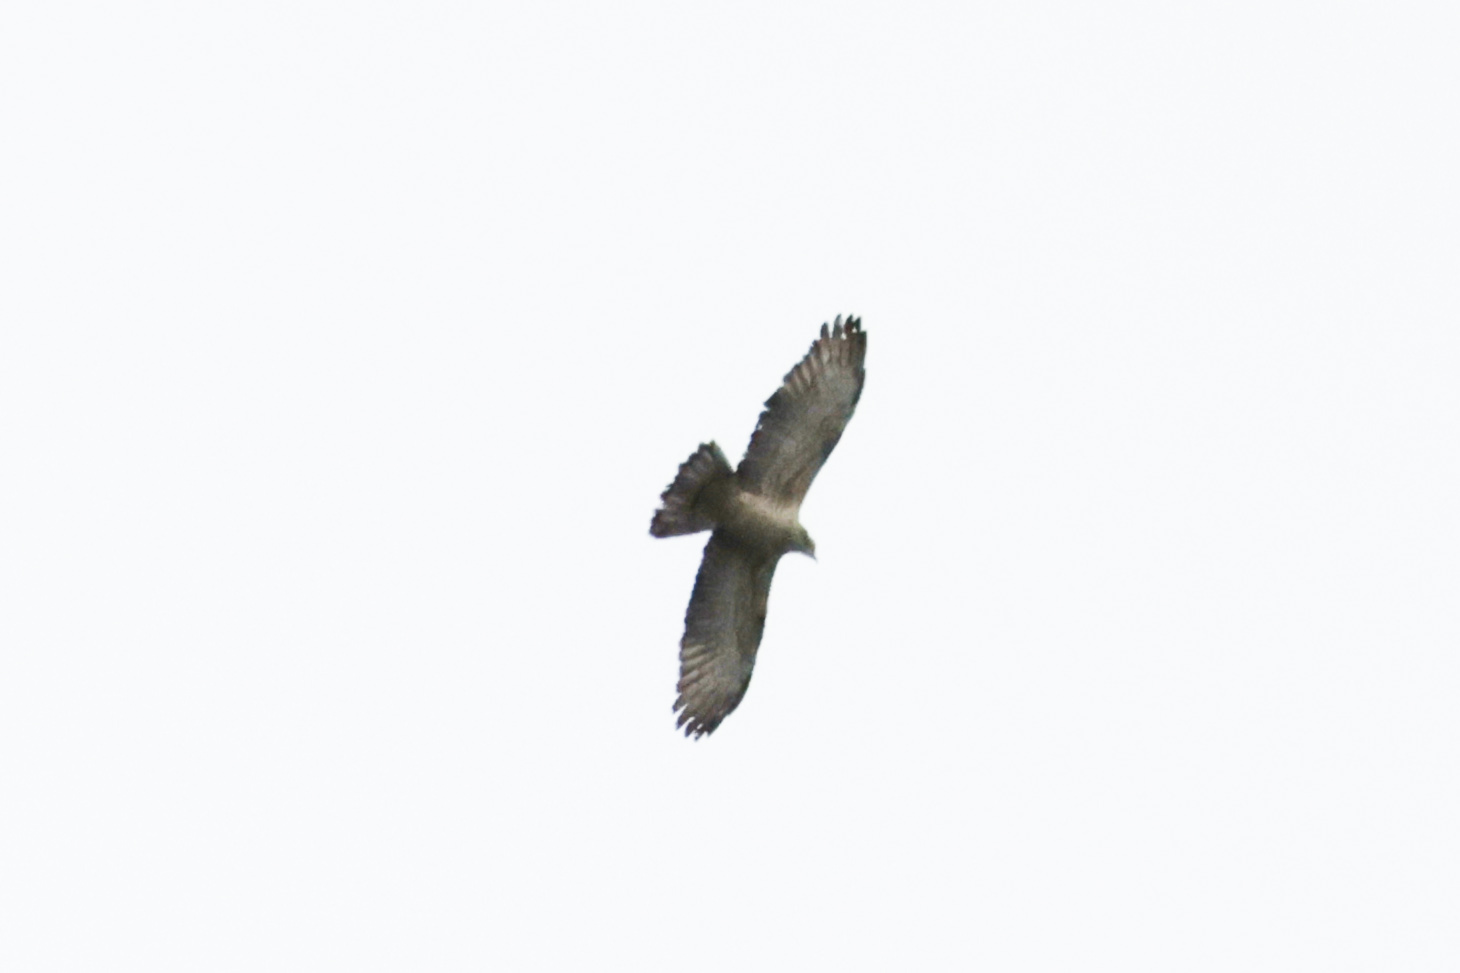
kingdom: Animalia
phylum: Chordata
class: Aves
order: Accipitriformes
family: Accipitridae
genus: Pernis
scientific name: Pernis ptilorhynchus
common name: Crested honey buzzard
